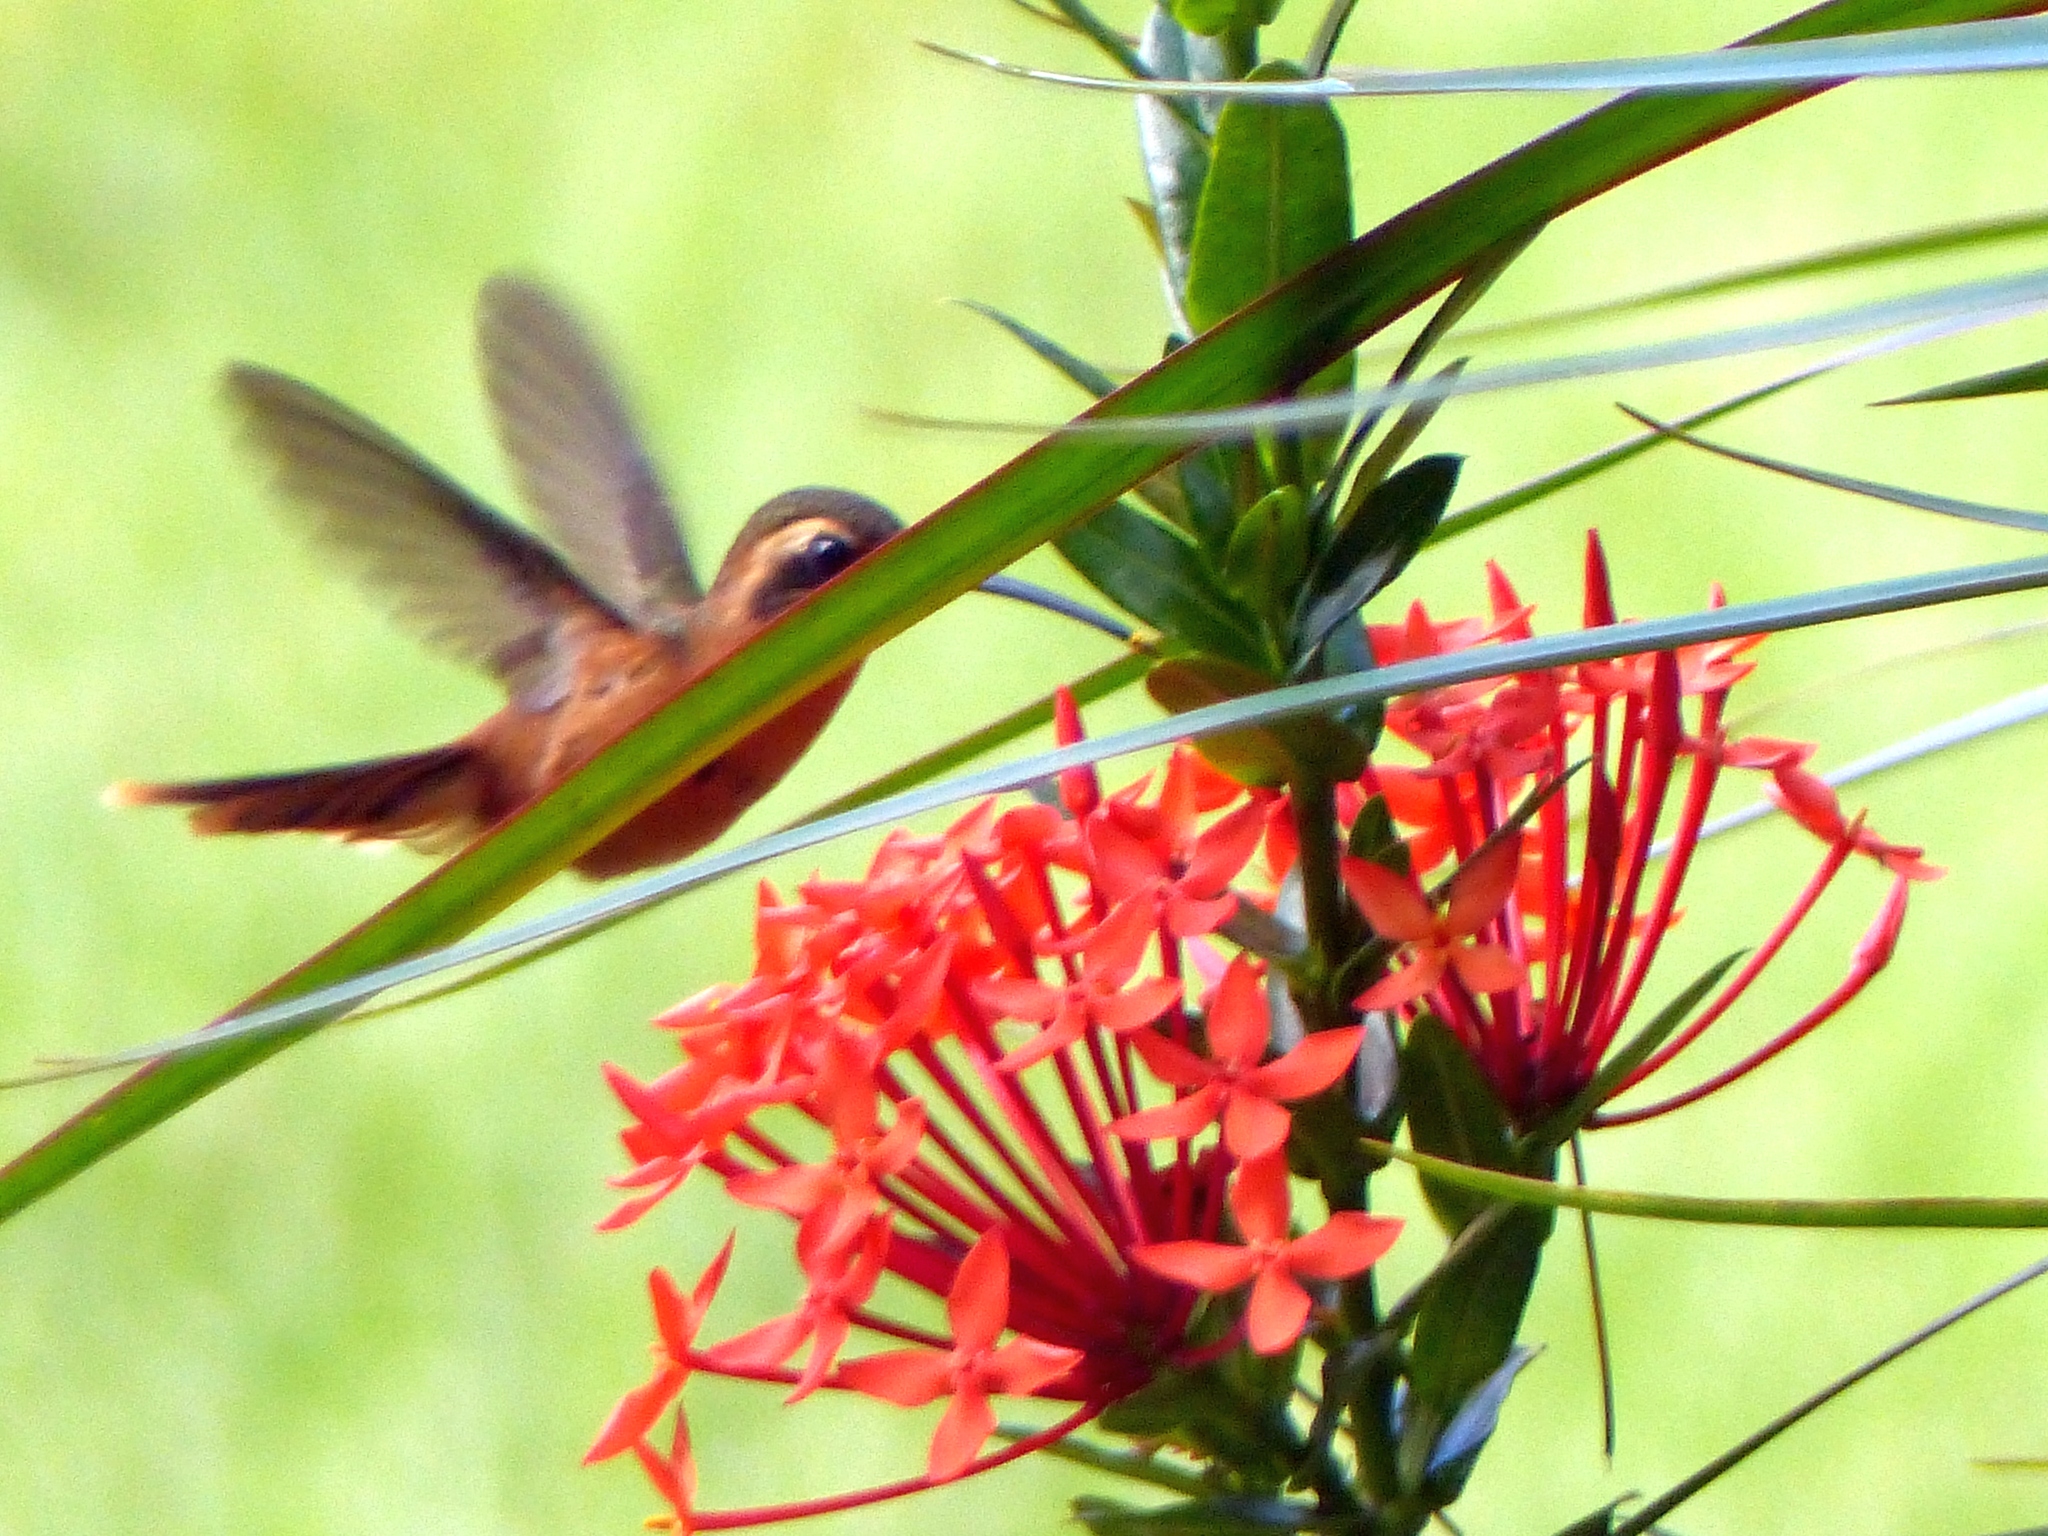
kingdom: Animalia
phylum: Chordata
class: Aves
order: Apodiformes
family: Trochilidae
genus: Phaethornis
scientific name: Phaethornis ruber
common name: Reddish hermit
